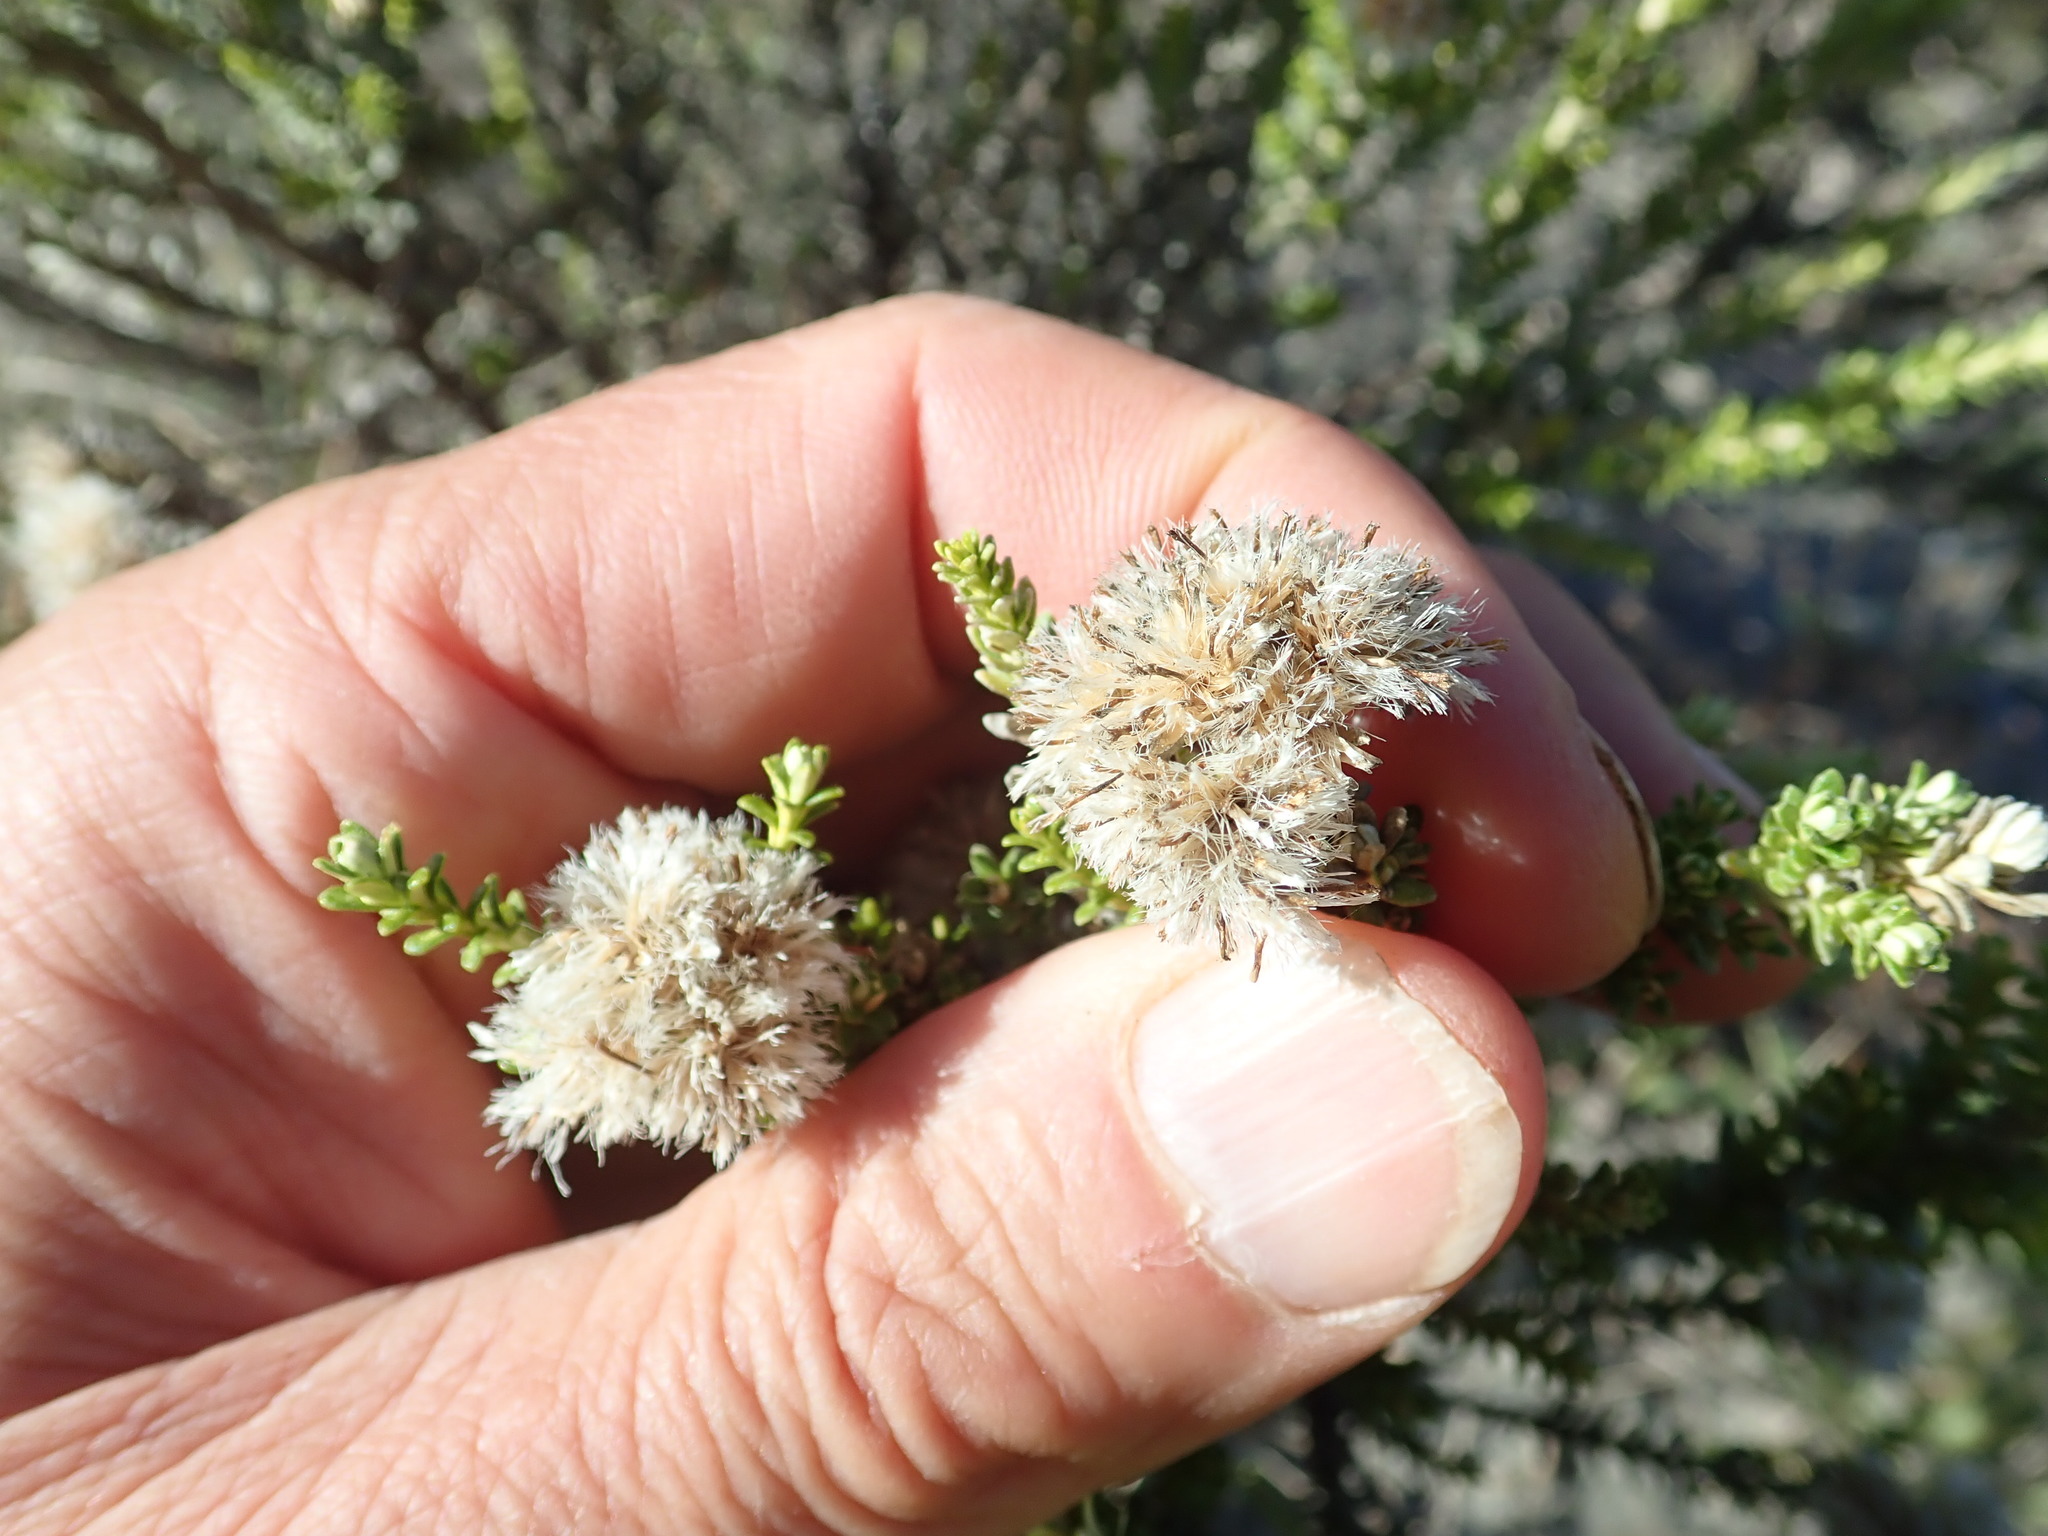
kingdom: Plantae
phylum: Tracheophyta
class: Magnoliopsida
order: Asterales
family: Asteraceae
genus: Ozothamnus
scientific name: Ozothamnus leptophyllus
